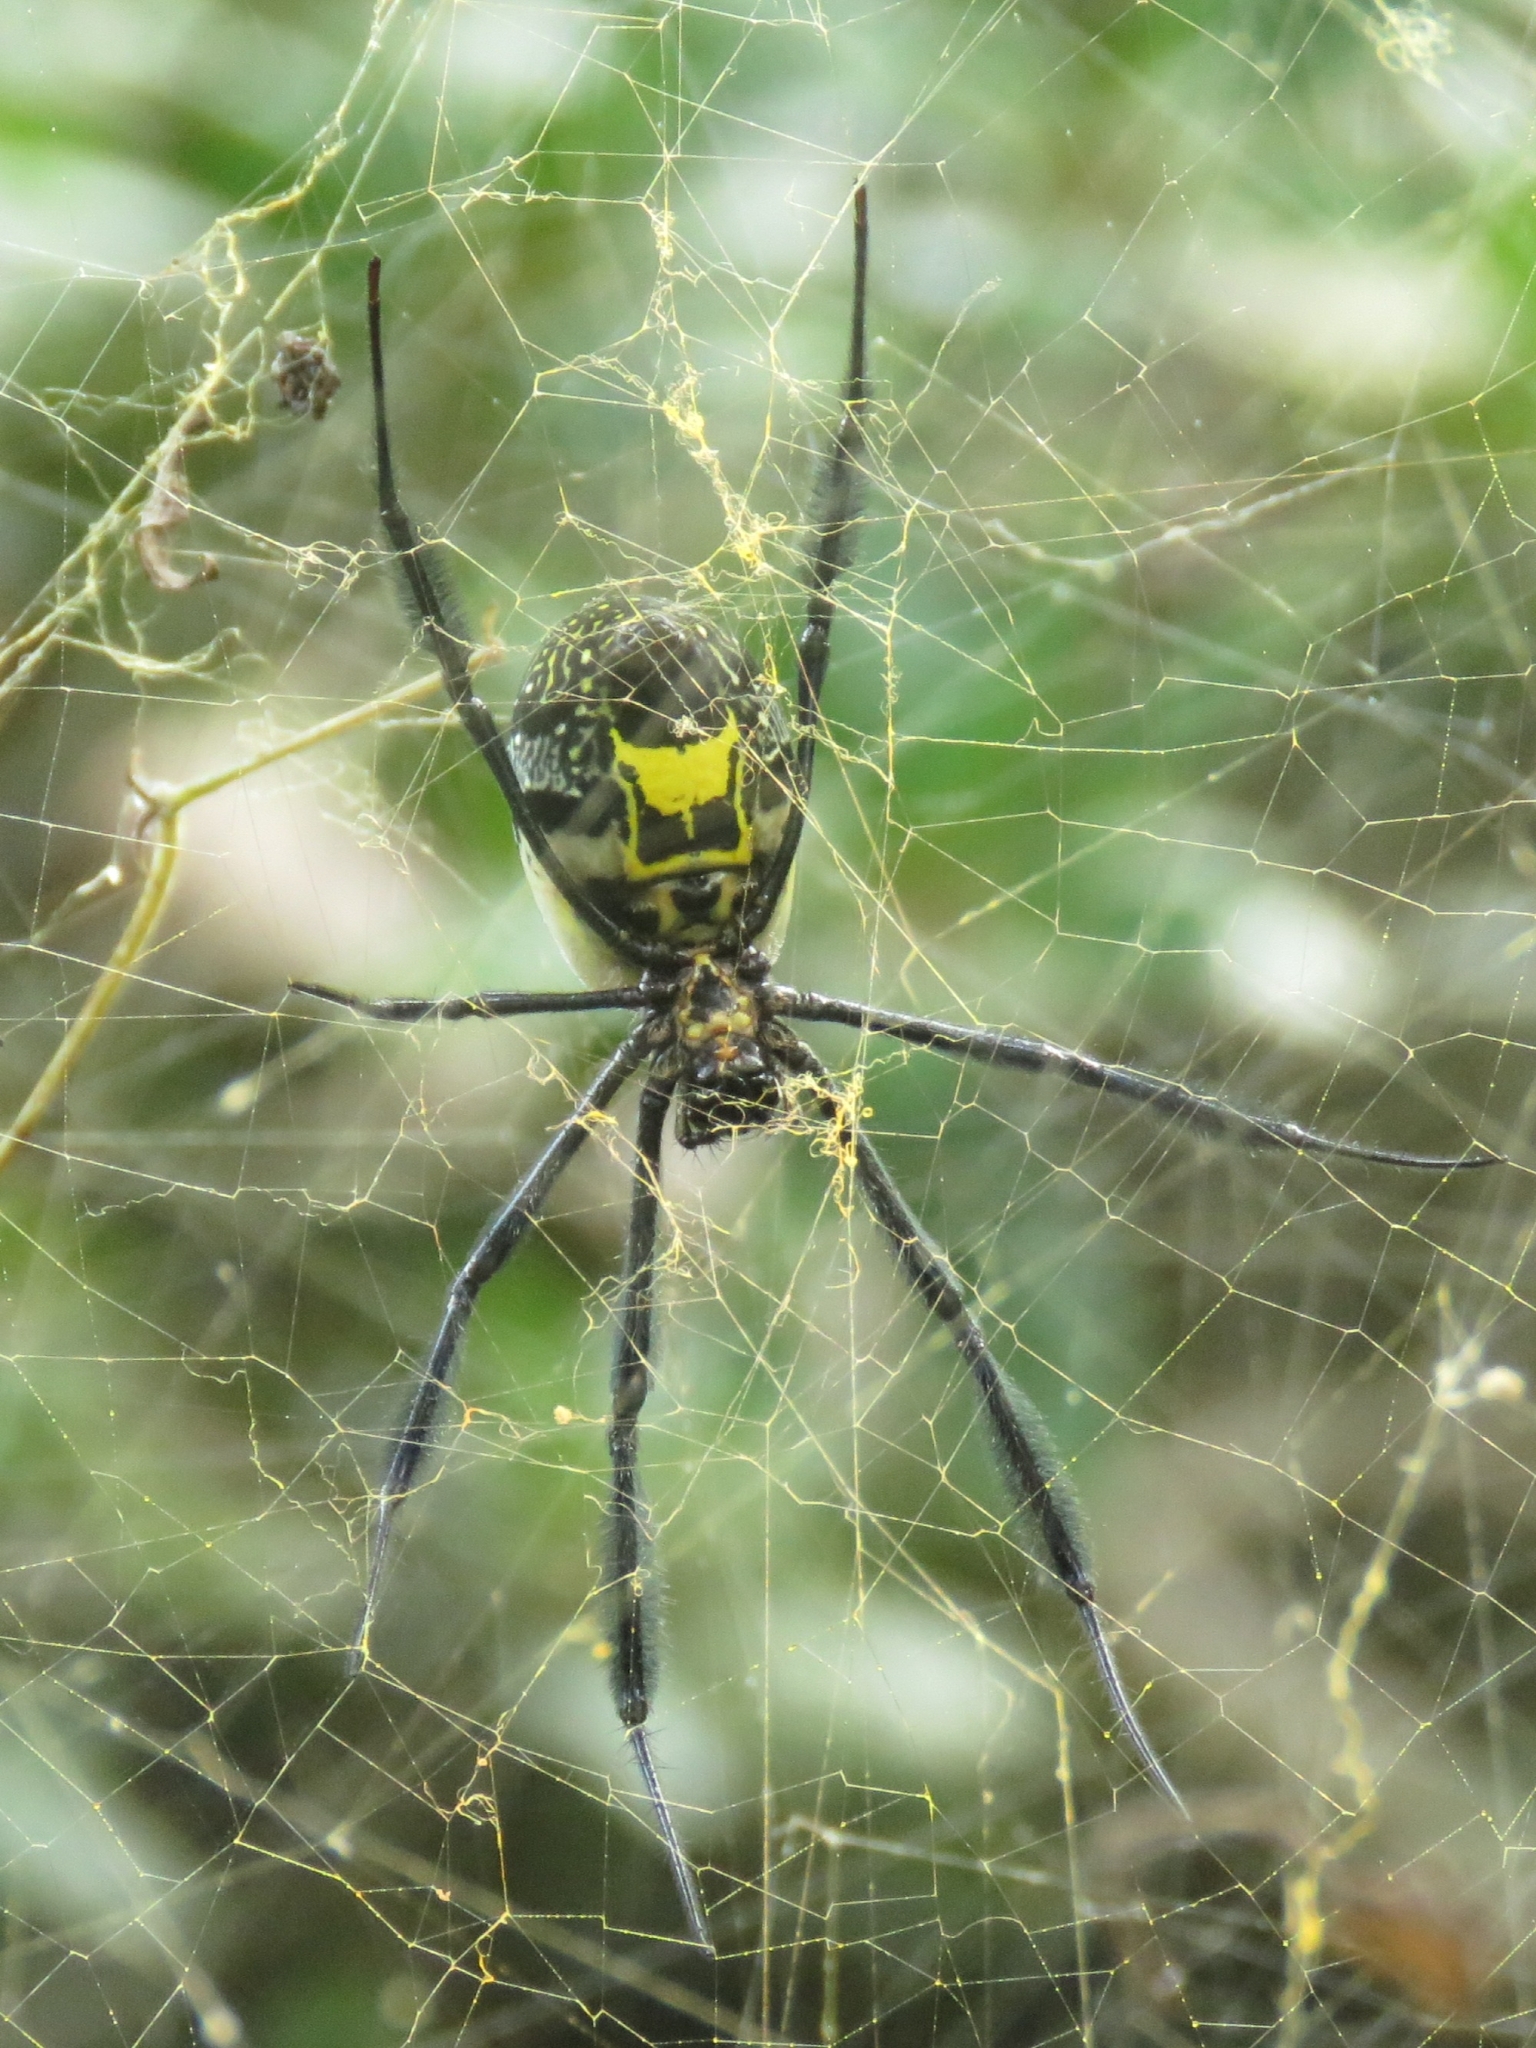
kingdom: Animalia
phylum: Arthropoda
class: Arachnida
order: Araneae
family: Araneidae
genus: Trichonephila
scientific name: Trichonephila fenestrata
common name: Hairy golden orb weaver
